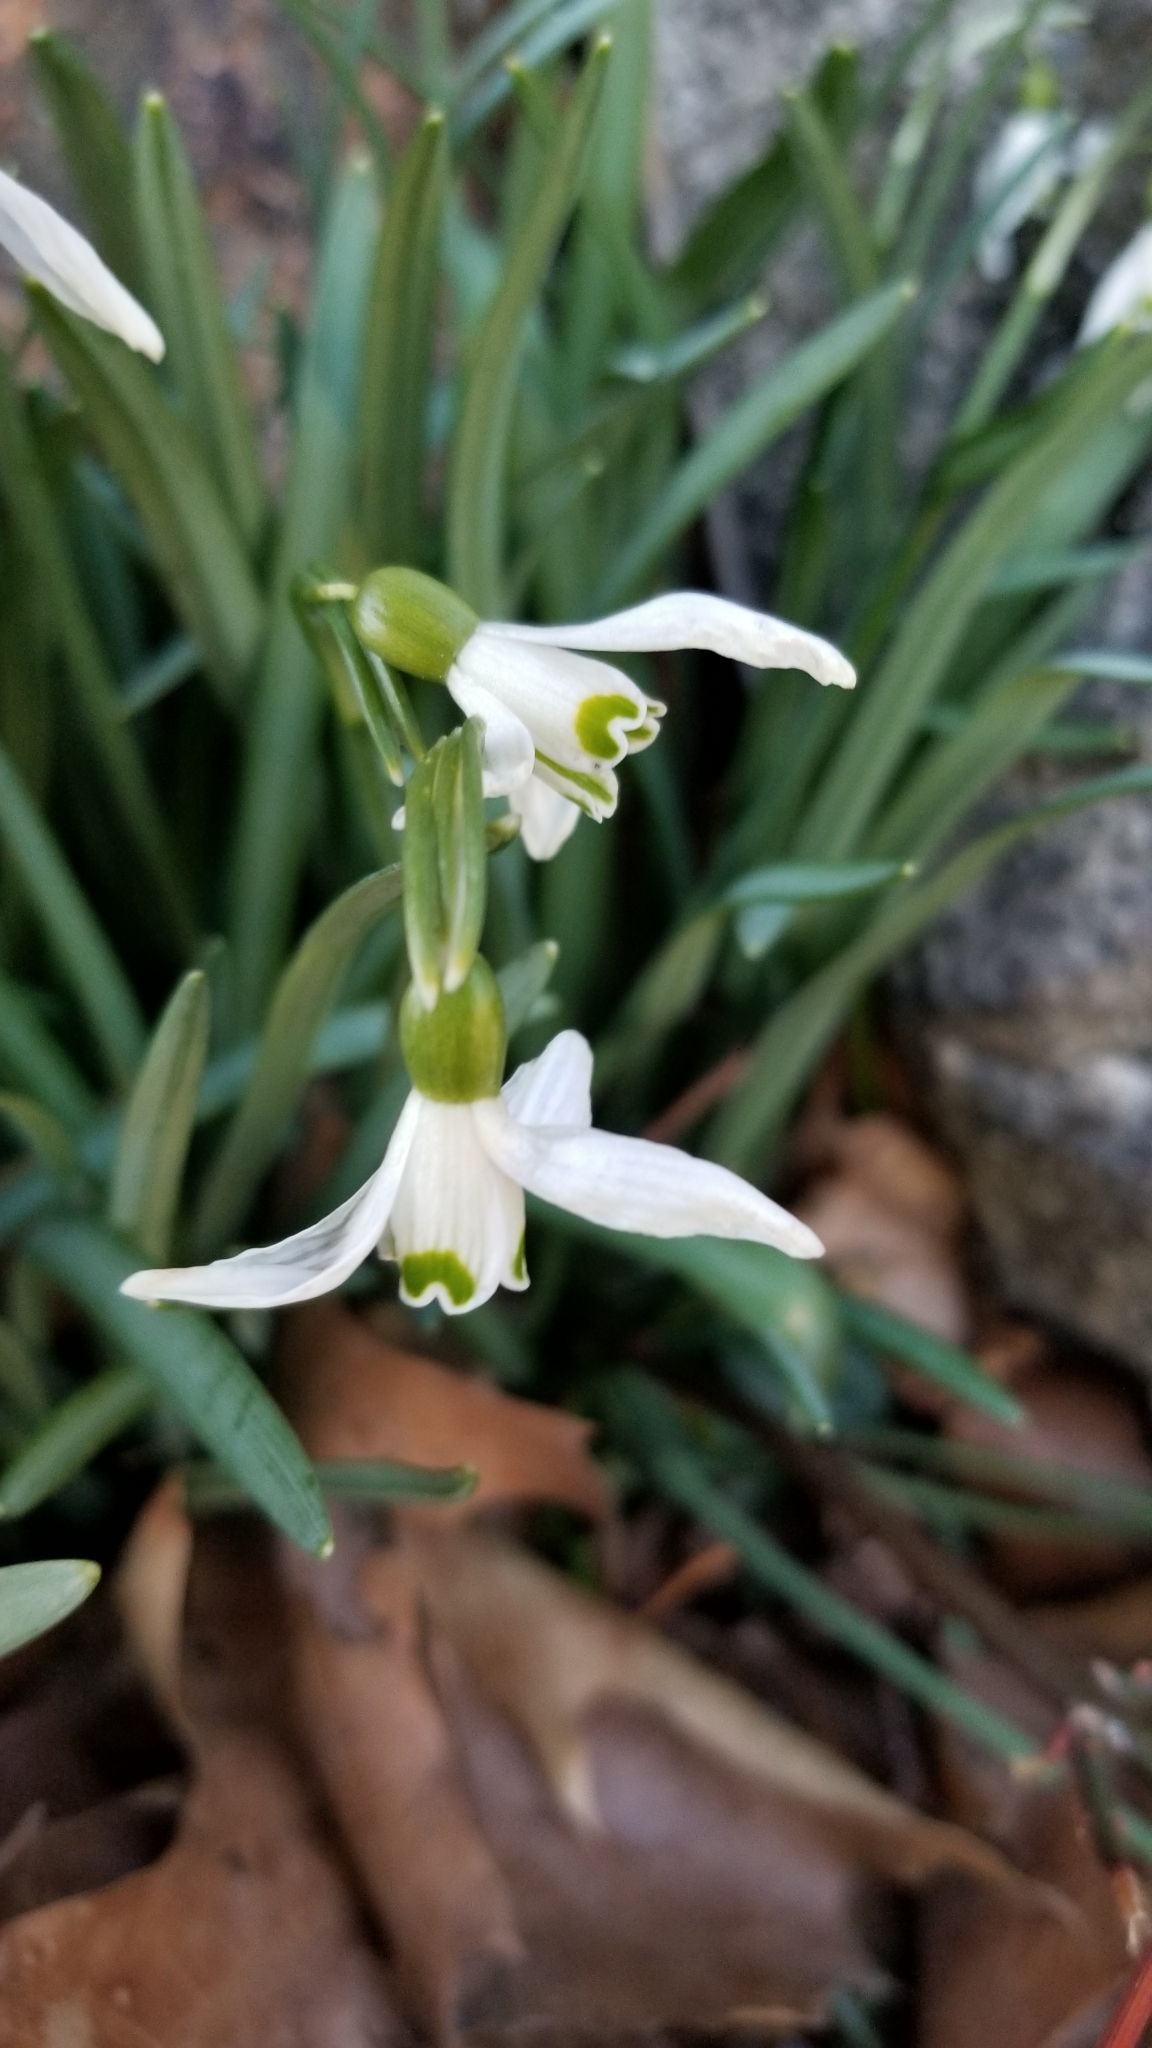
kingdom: Plantae
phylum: Tracheophyta
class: Liliopsida
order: Asparagales
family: Amaryllidaceae
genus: Galanthus
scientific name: Galanthus nivalis
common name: Snowdrop
